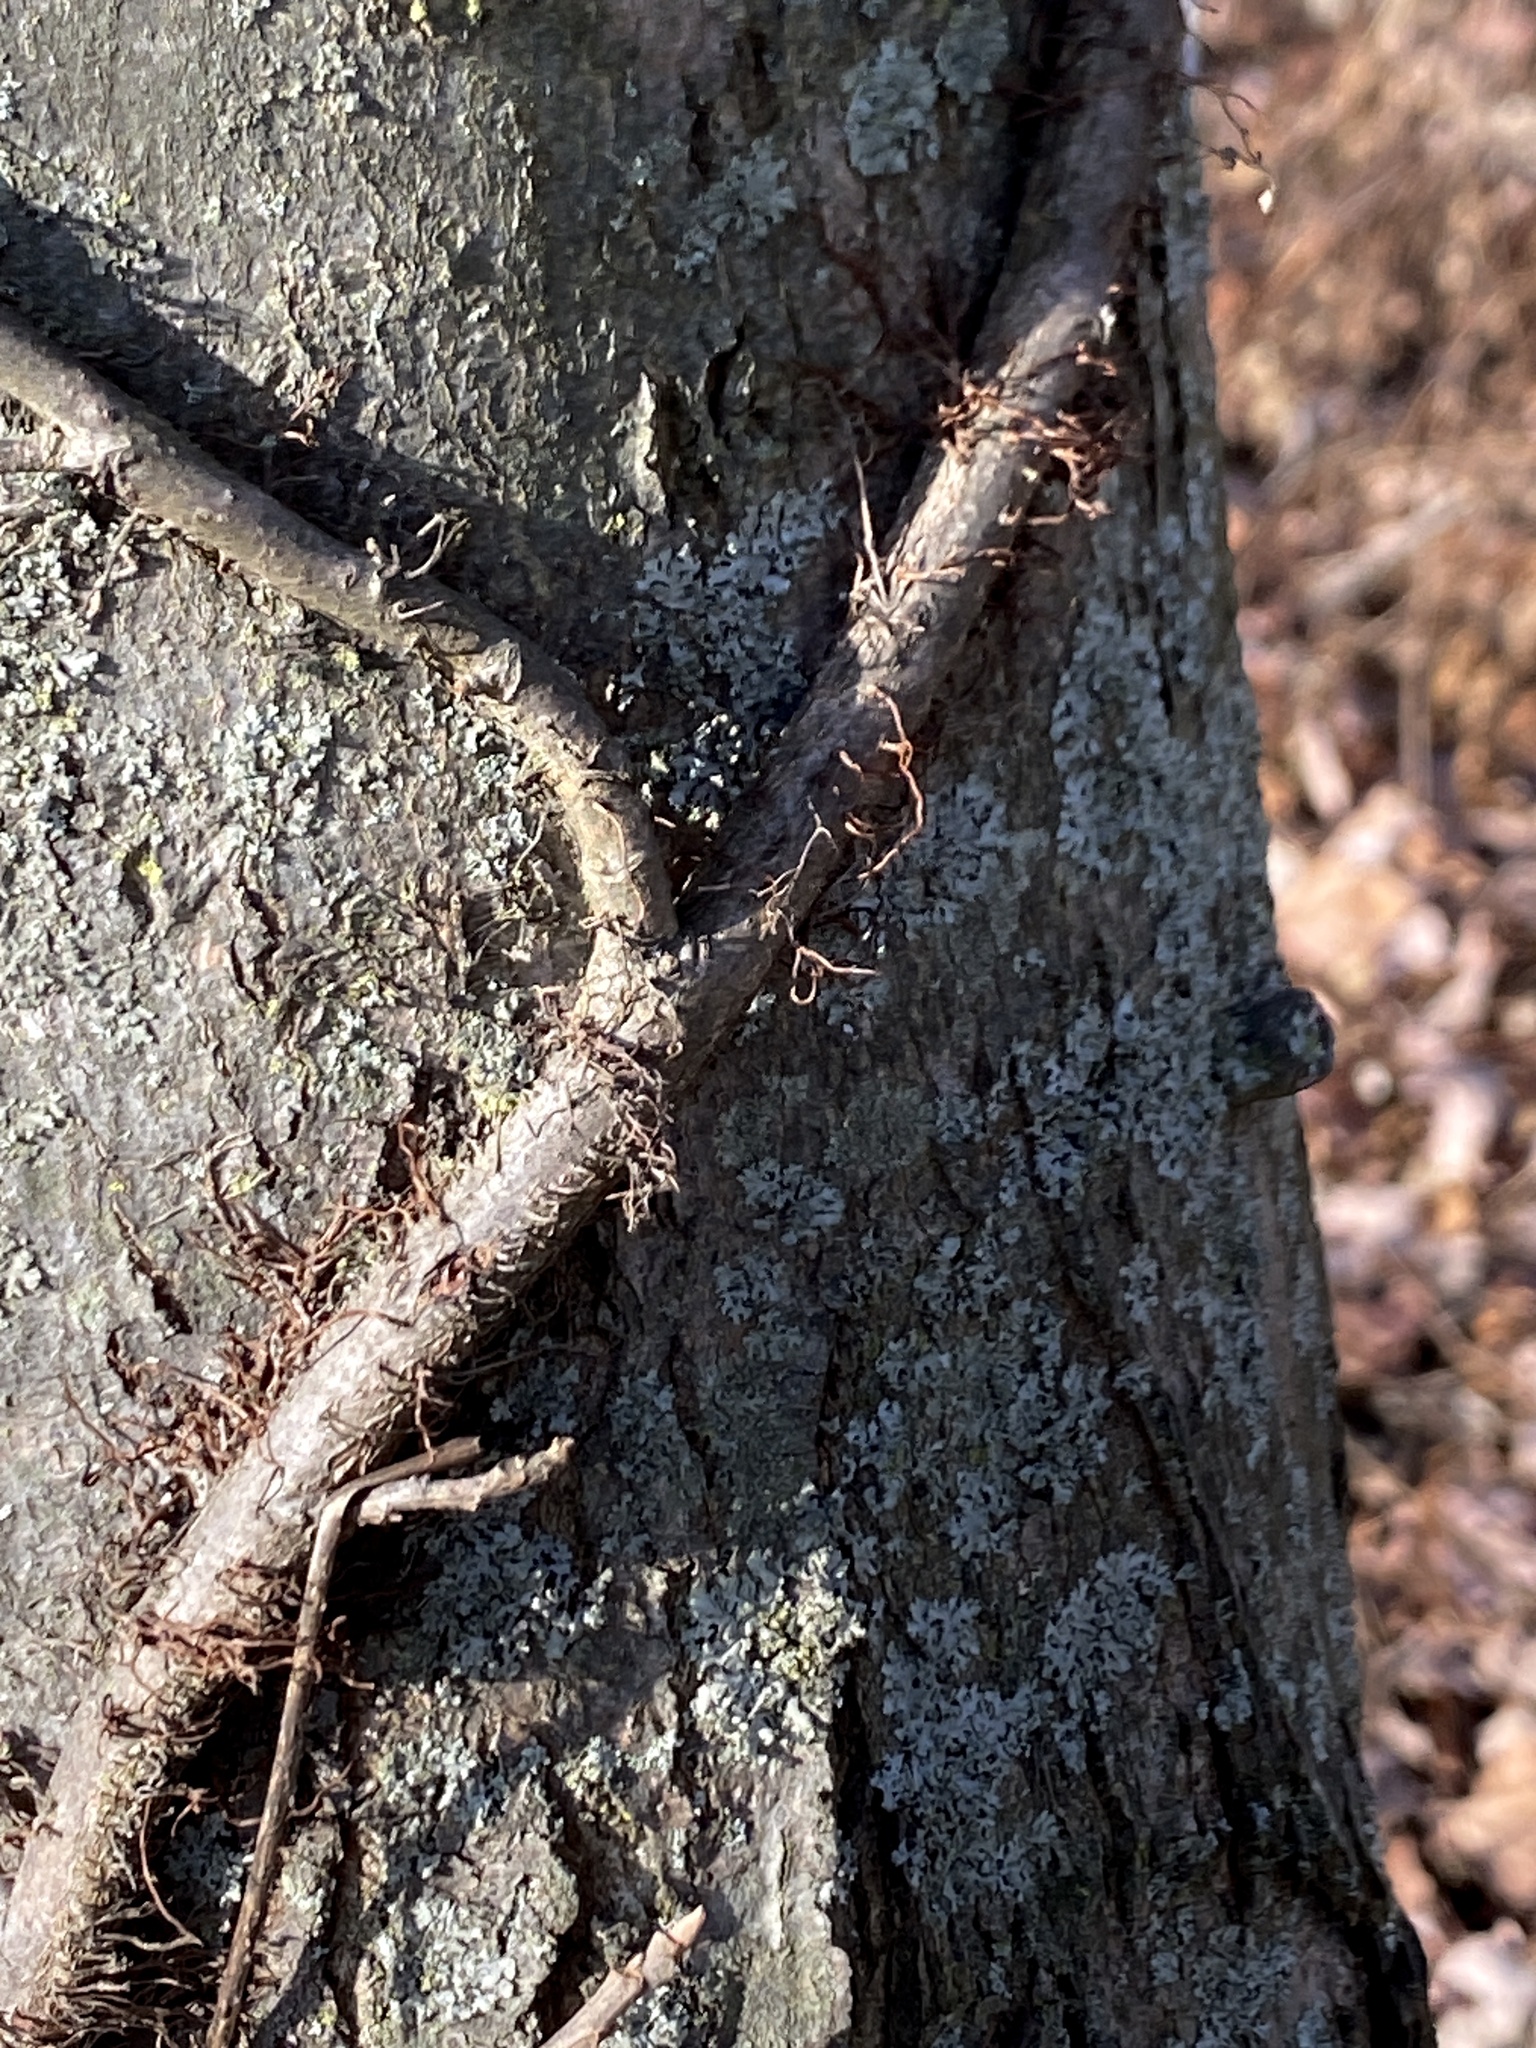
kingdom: Plantae
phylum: Tracheophyta
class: Magnoliopsida
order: Sapindales
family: Anacardiaceae
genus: Toxicodendron
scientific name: Toxicodendron radicans
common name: Poison ivy
